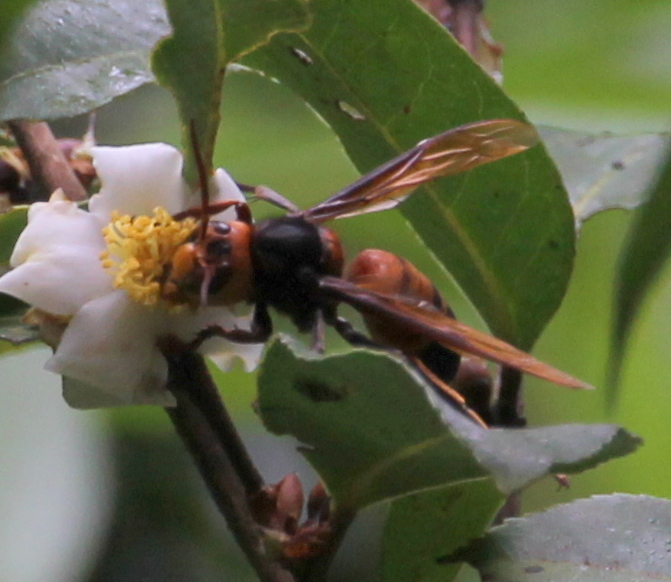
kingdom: Animalia
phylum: Arthropoda
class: Insecta
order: Hymenoptera
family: Vespidae
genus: Vespa
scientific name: Vespa soror
